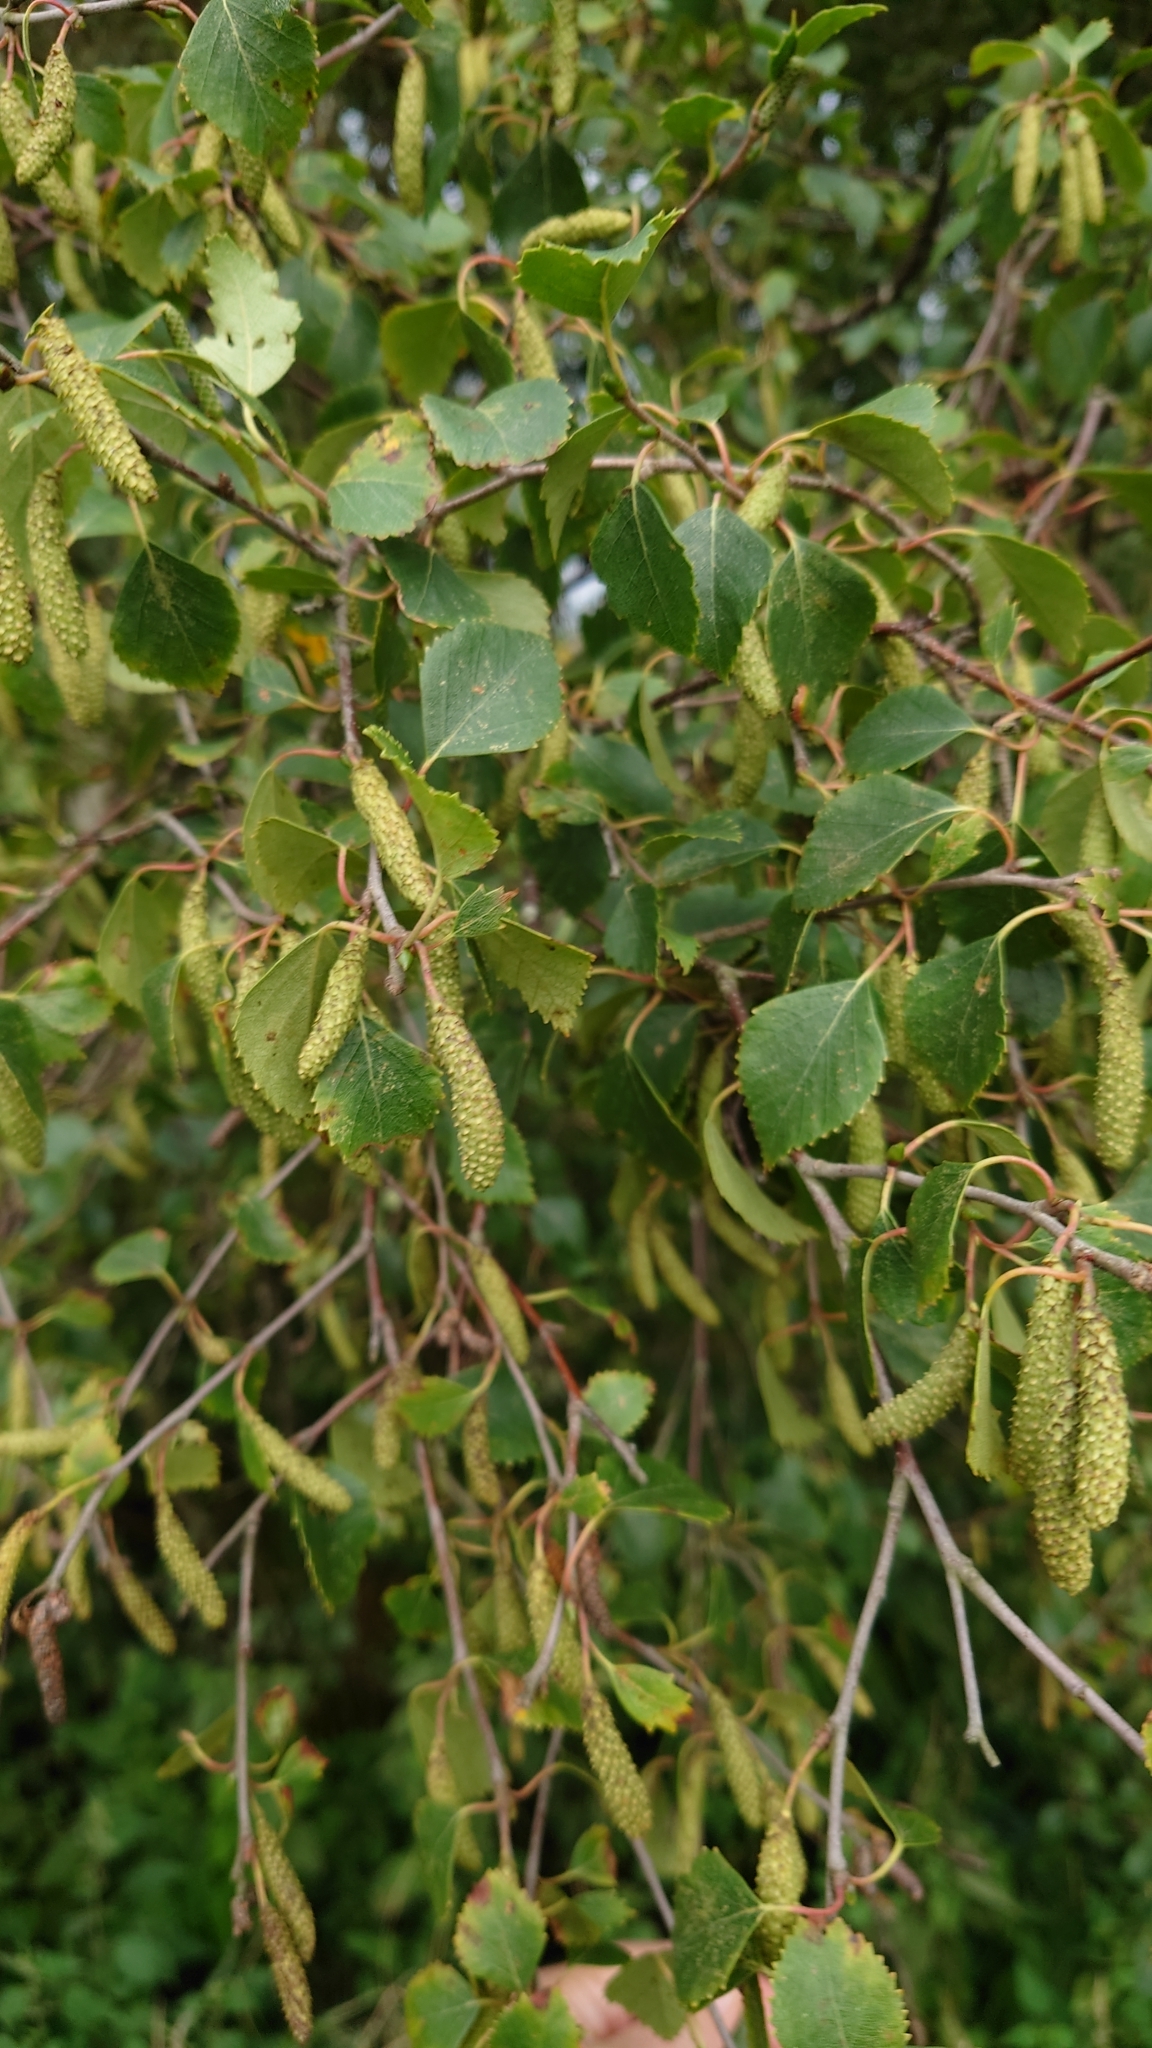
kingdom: Plantae
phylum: Tracheophyta
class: Magnoliopsida
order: Fagales
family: Betulaceae
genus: Betula
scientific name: Betula pubescens
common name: Downy birch
